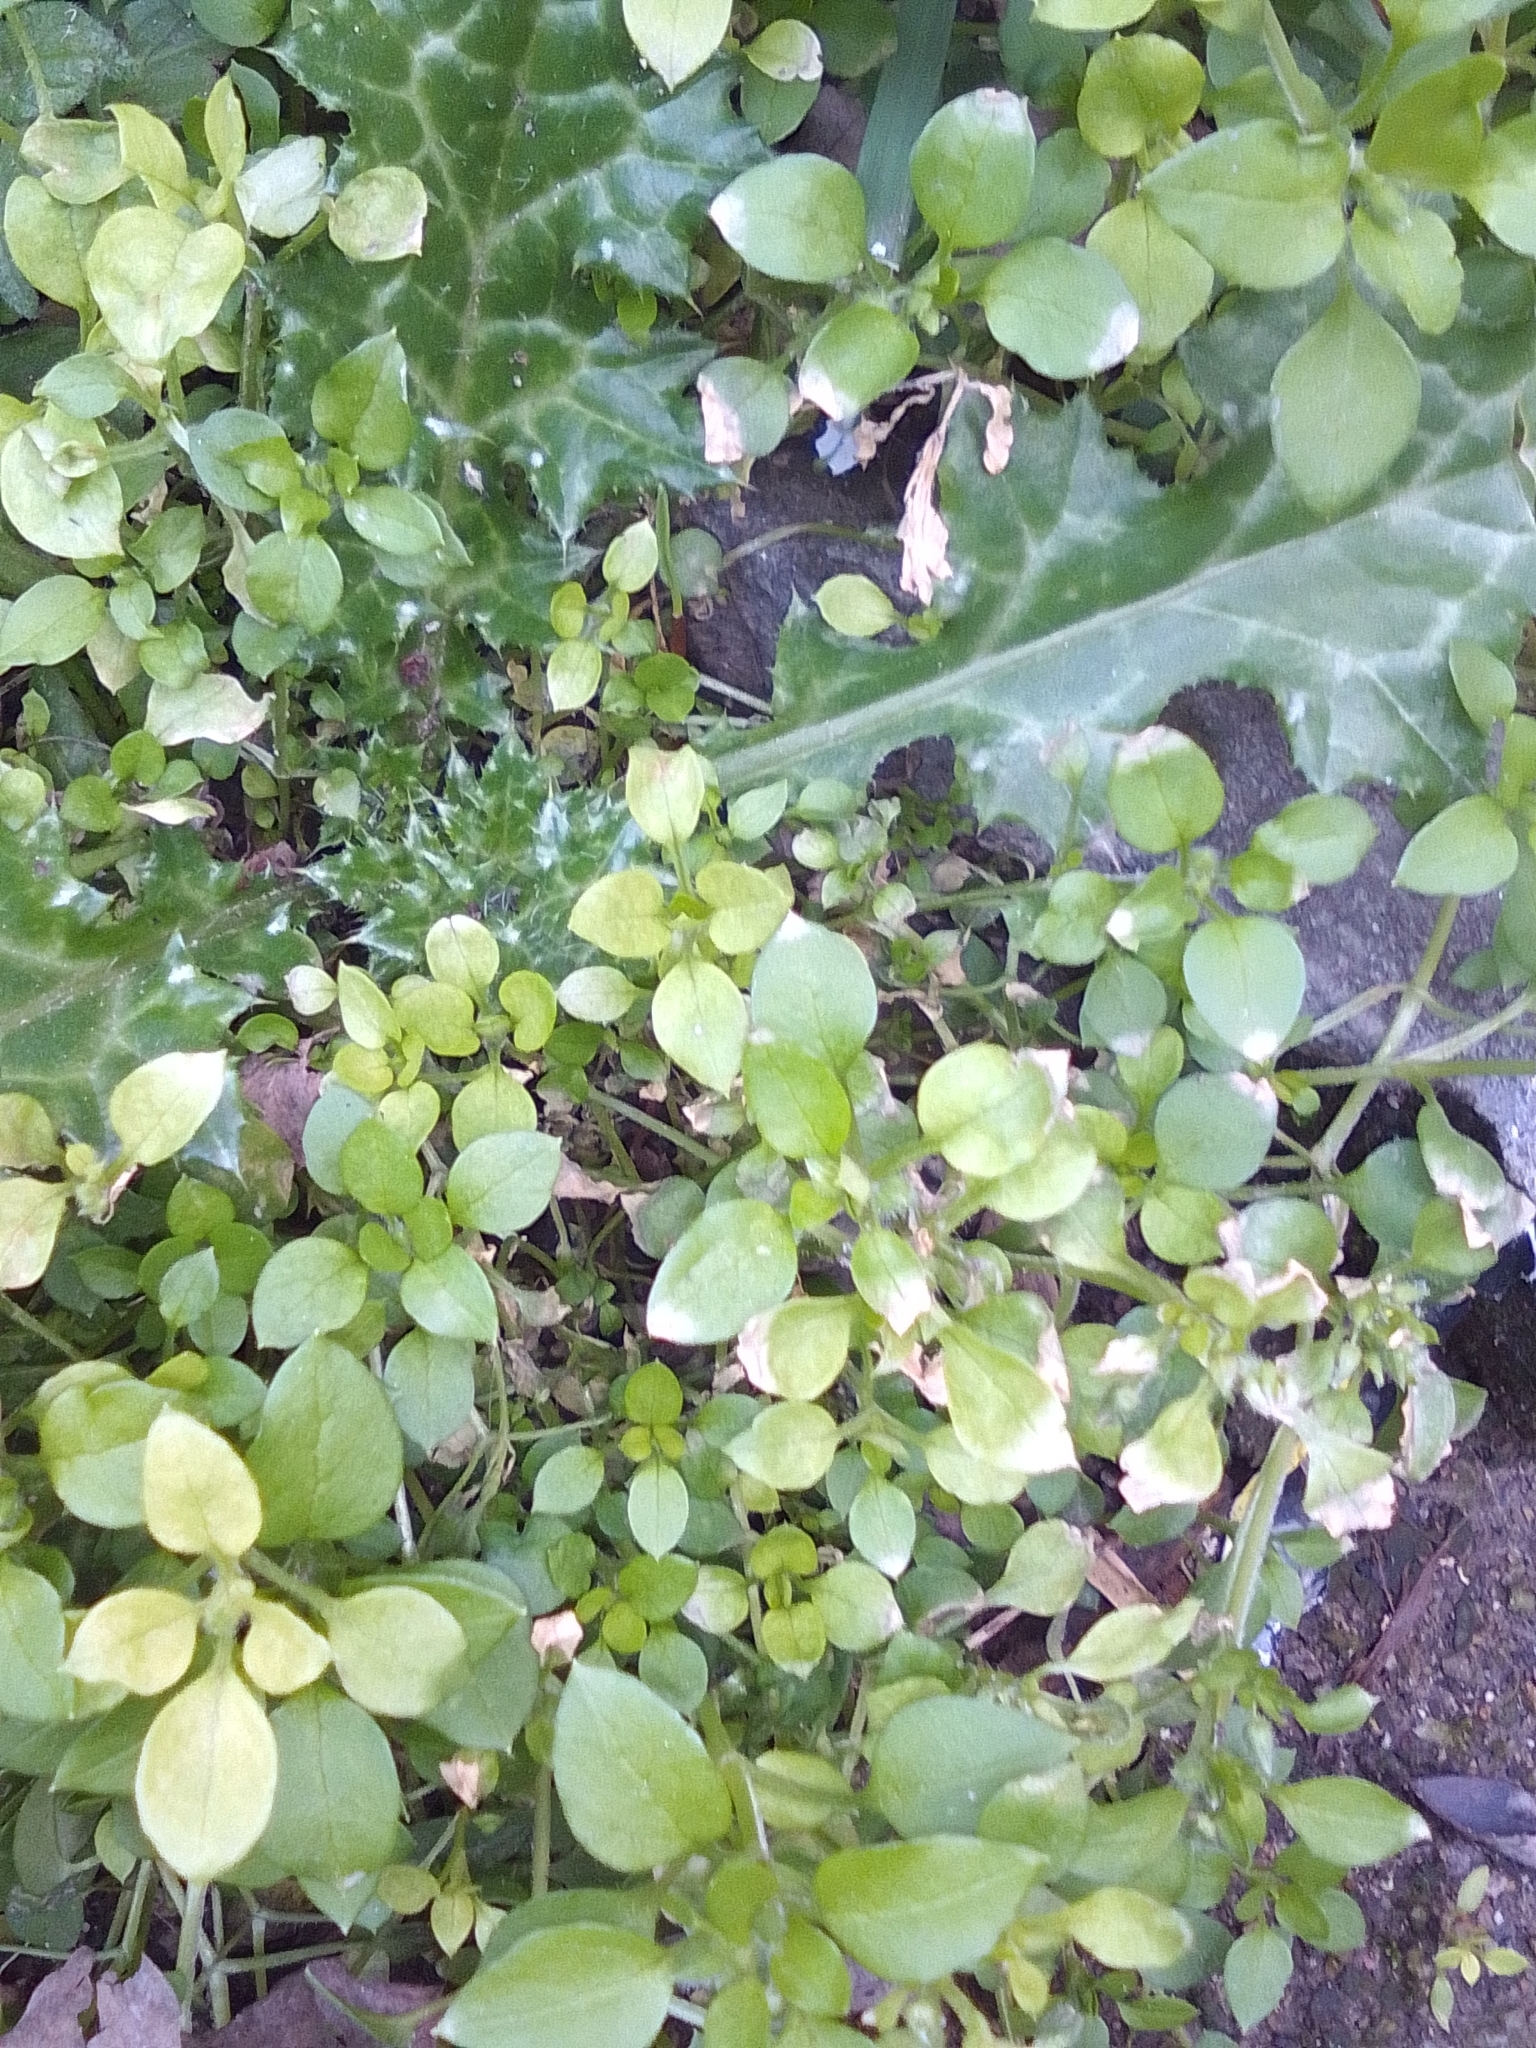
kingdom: Plantae
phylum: Tracheophyta
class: Magnoliopsida
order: Caryophyllales
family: Caryophyllaceae
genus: Stellaria
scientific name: Stellaria media
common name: Common chickweed
